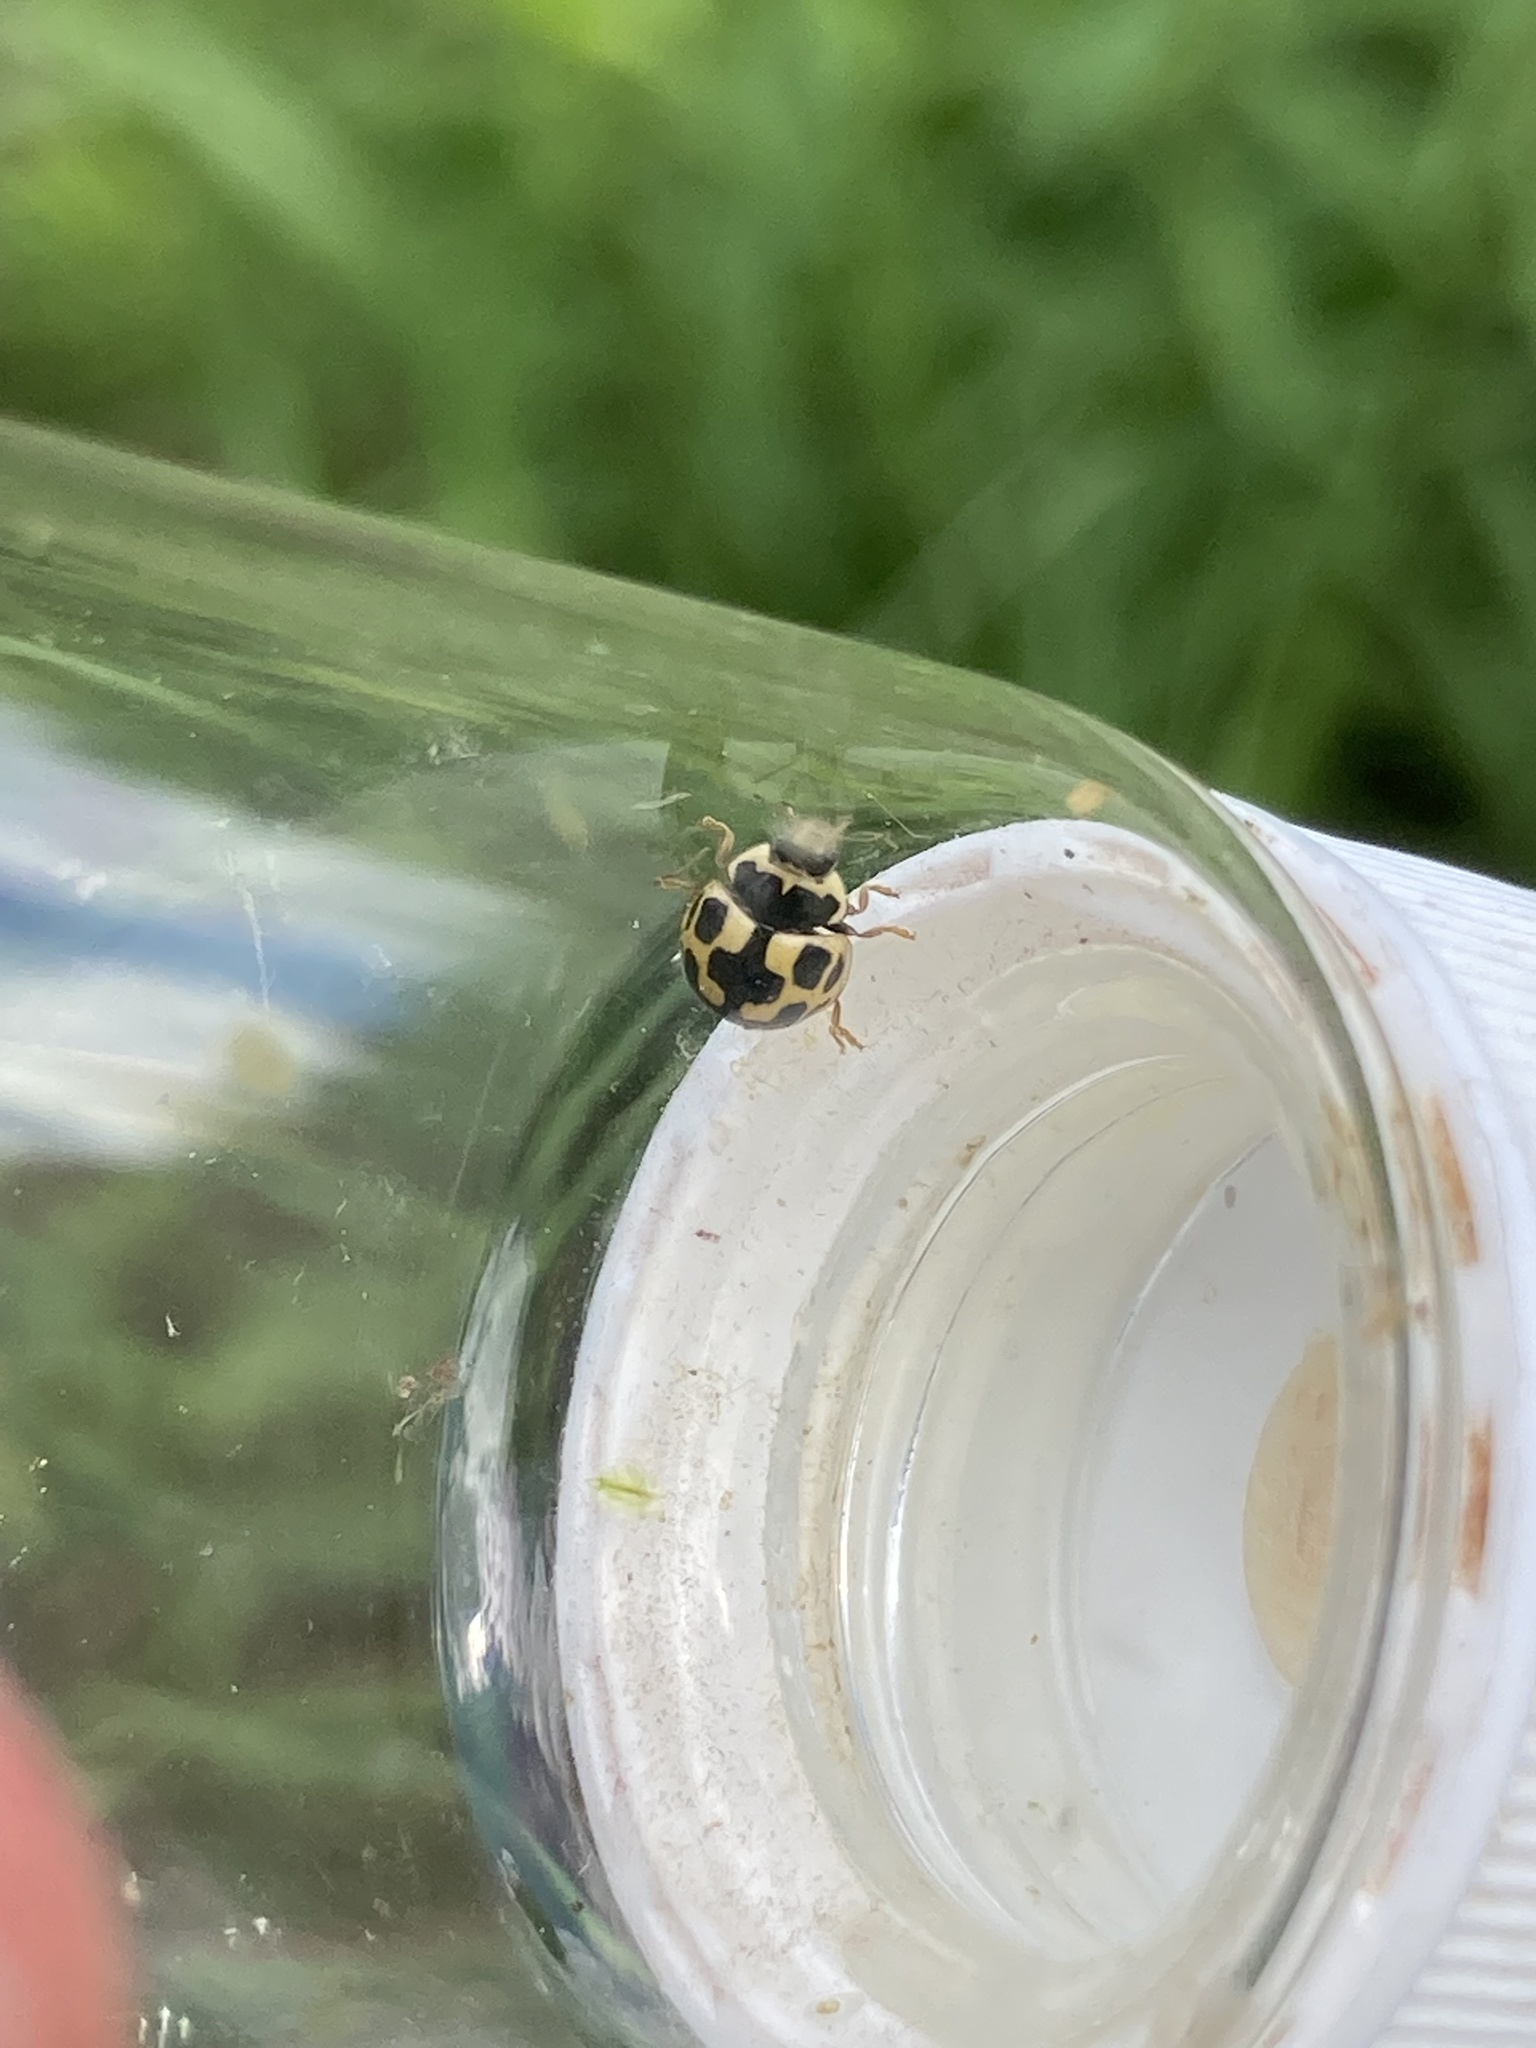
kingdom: Animalia
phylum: Arthropoda
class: Insecta
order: Coleoptera
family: Coccinellidae
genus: Propylaea
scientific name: Propylaea quatuordecimpunctata
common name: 14-spotted ladybird beetle
